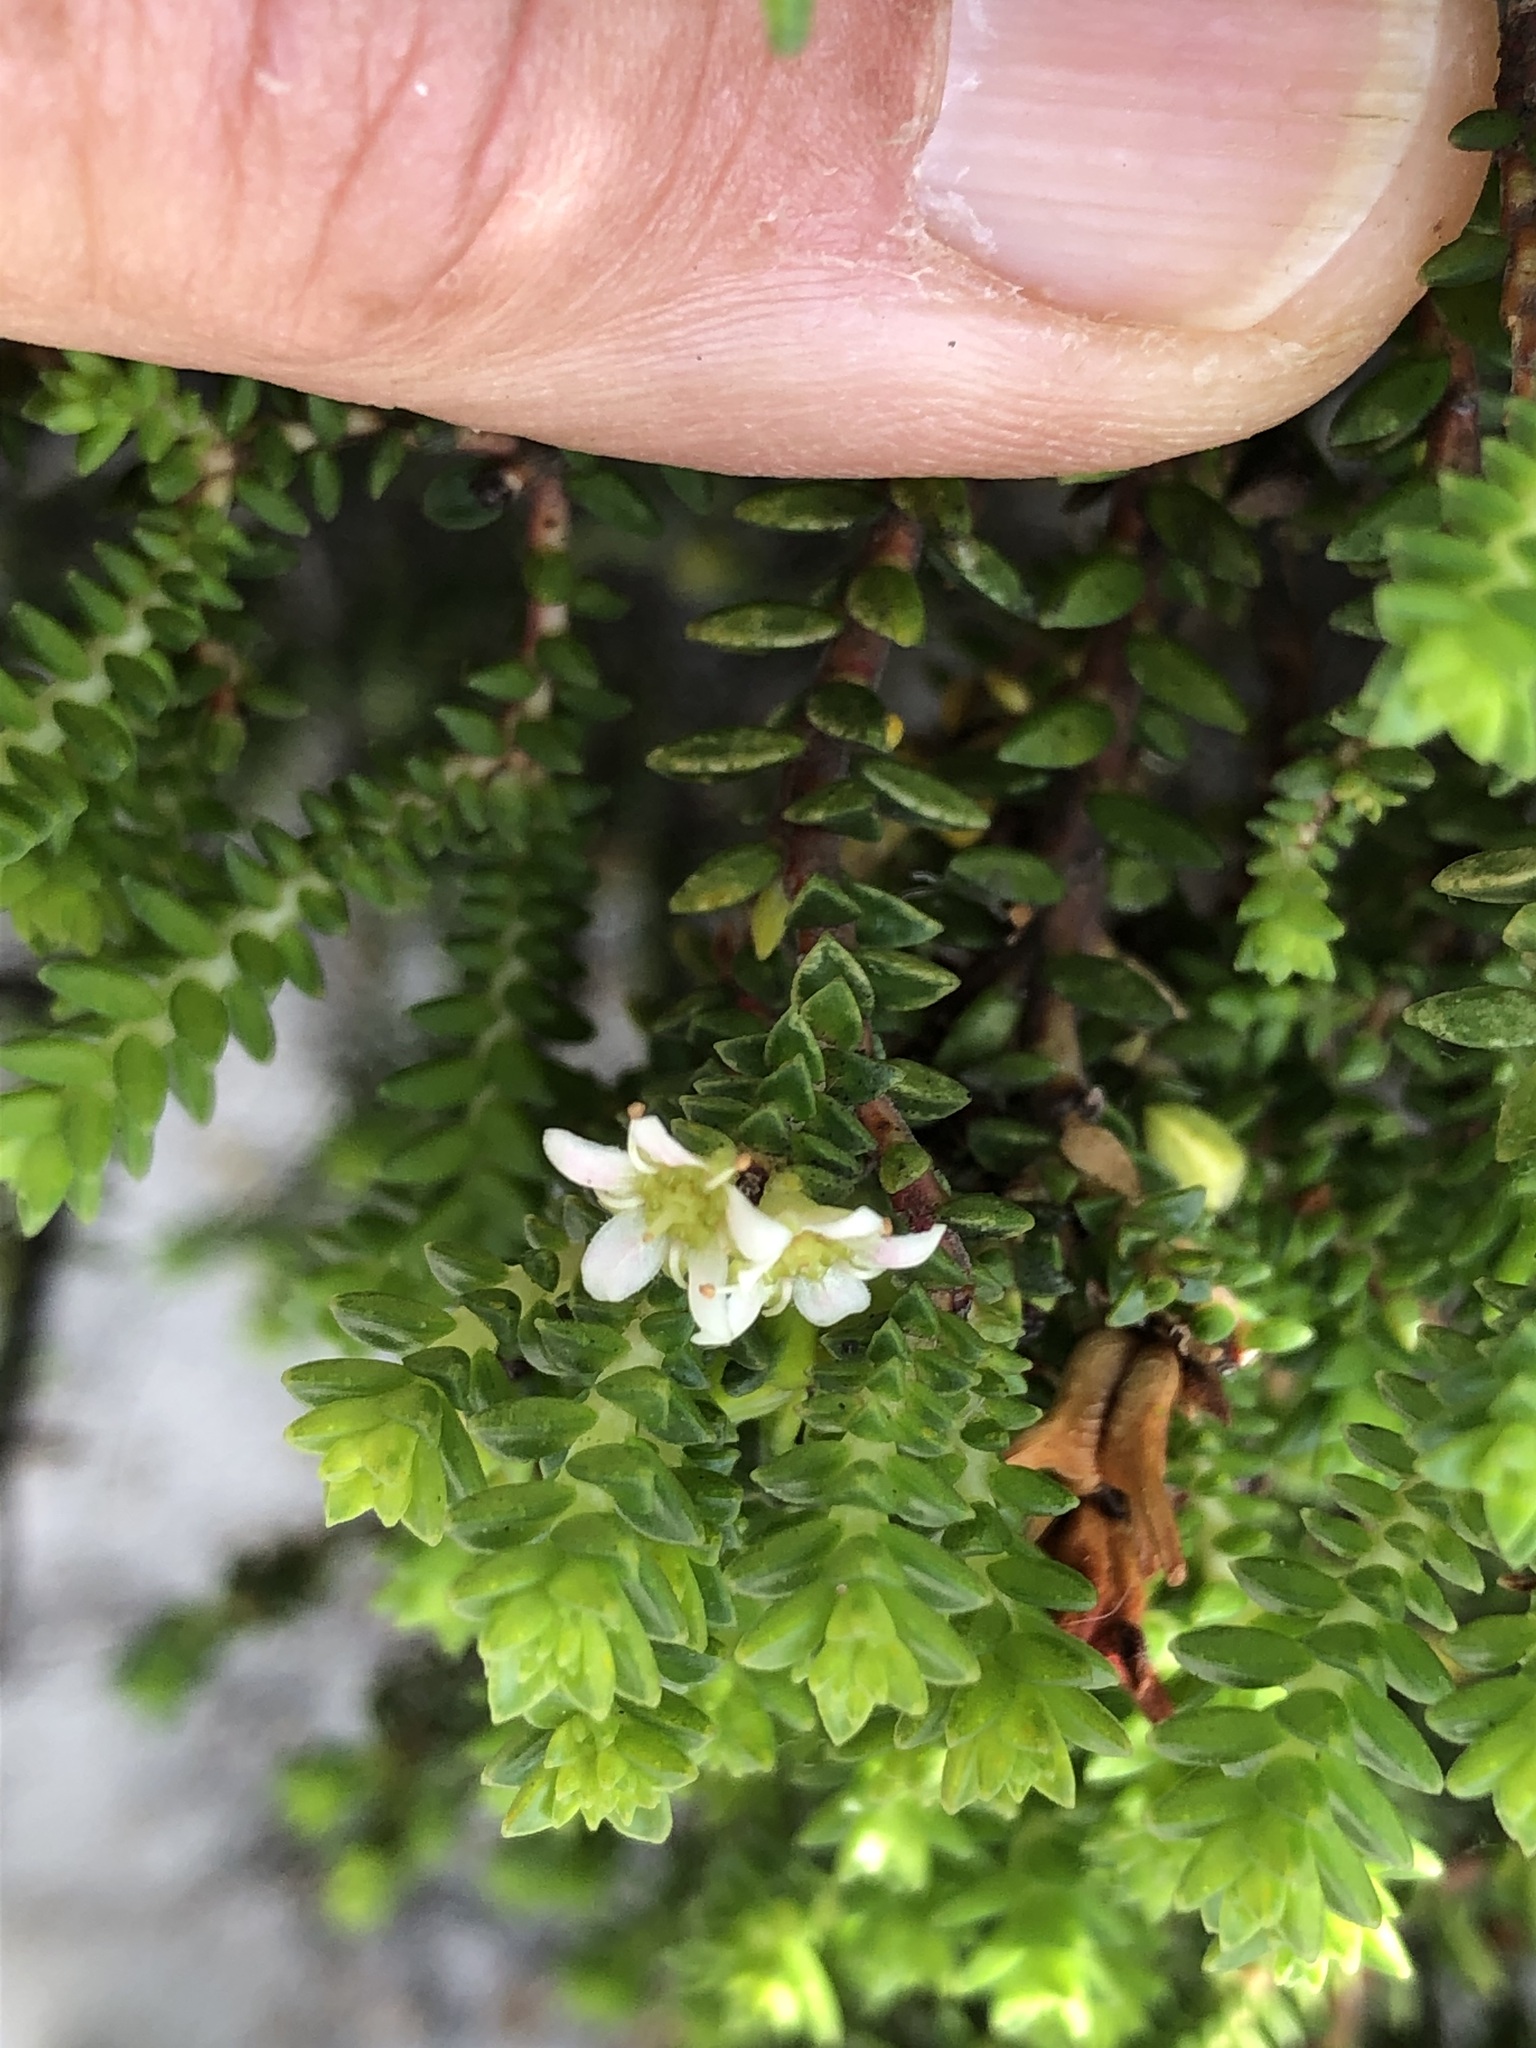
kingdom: Plantae
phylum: Tracheophyta
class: Magnoliopsida
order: Sapindales
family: Rutaceae
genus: Diosma
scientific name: Diosma guthriei
